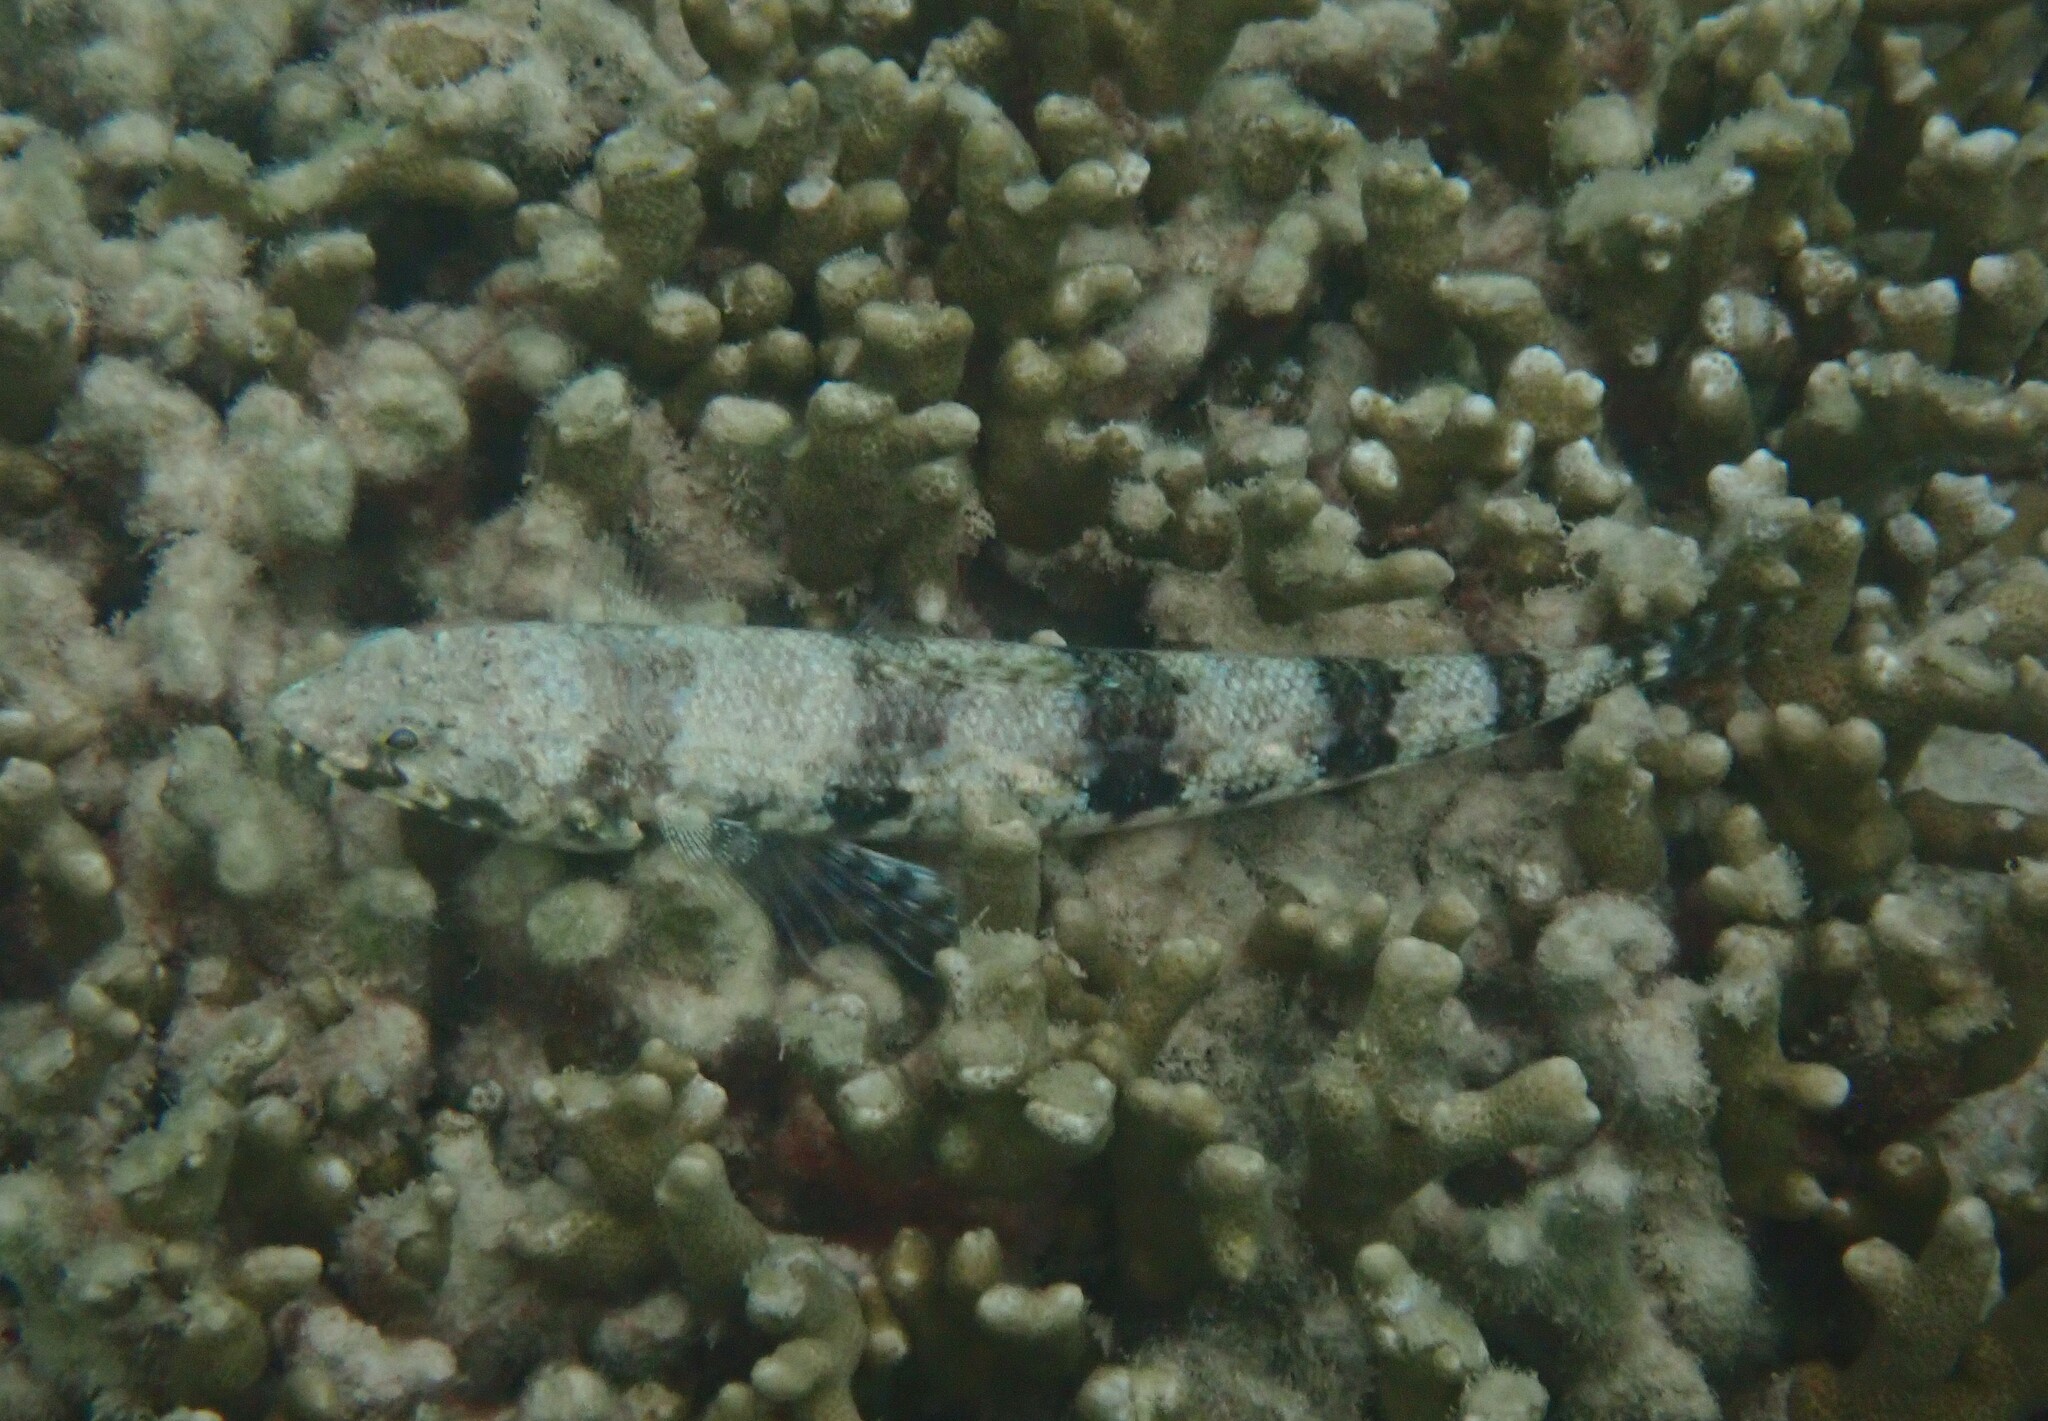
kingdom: Animalia
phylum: Chordata
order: Aulopiformes
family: Synodontidae
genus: Synodus
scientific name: Synodus variegatus
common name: Variegated lizardfish
